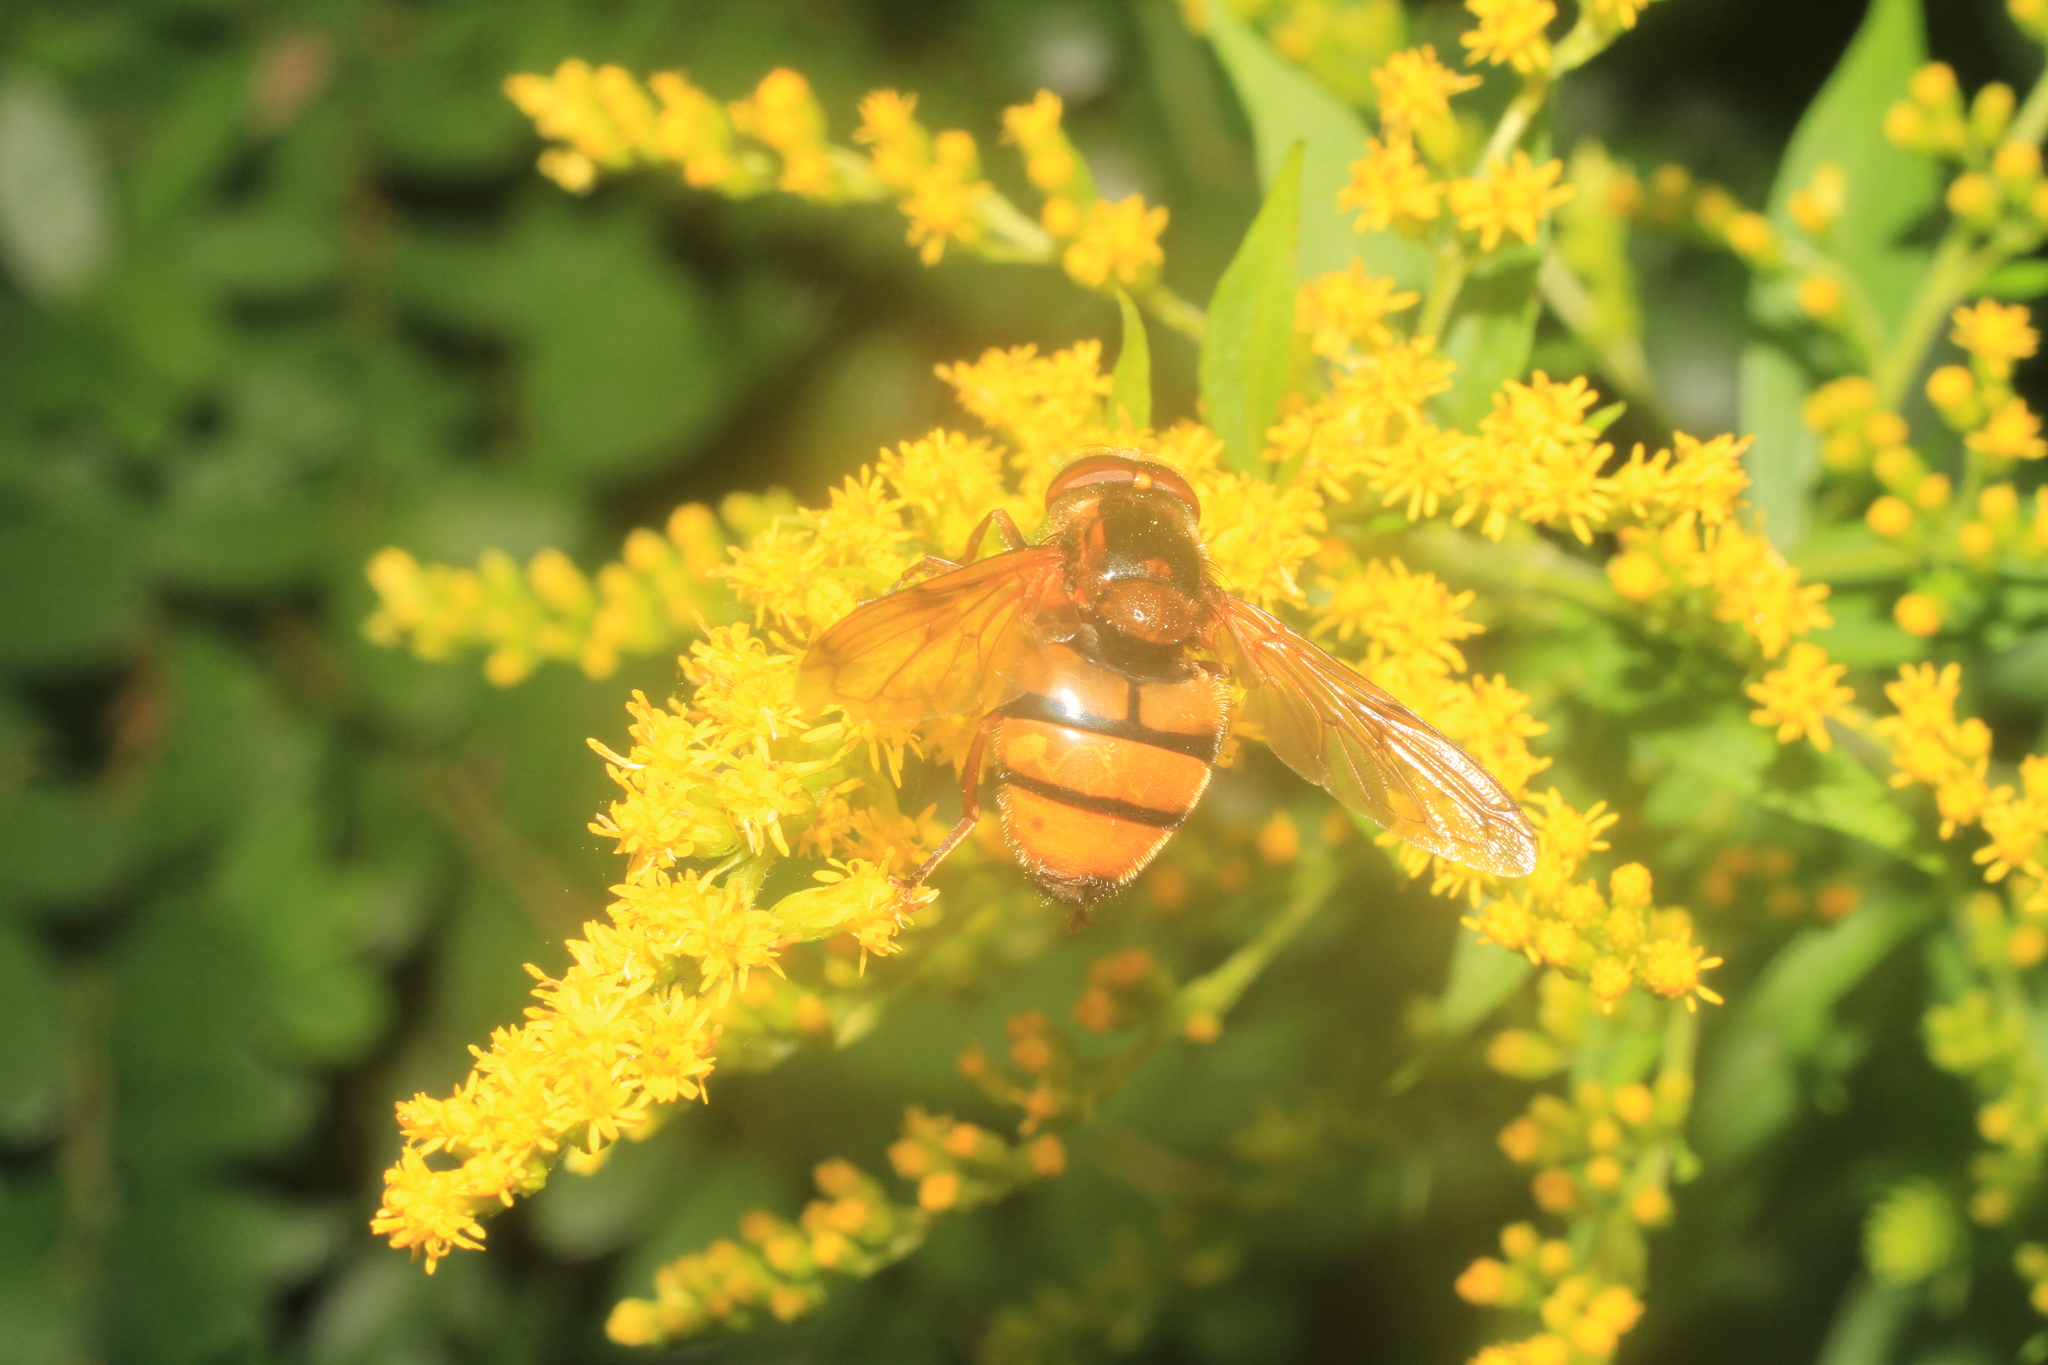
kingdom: Animalia
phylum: Arthropoda
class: Insecta
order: Diptera
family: Syrphidae
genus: Volucella
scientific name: Volucella inanis
